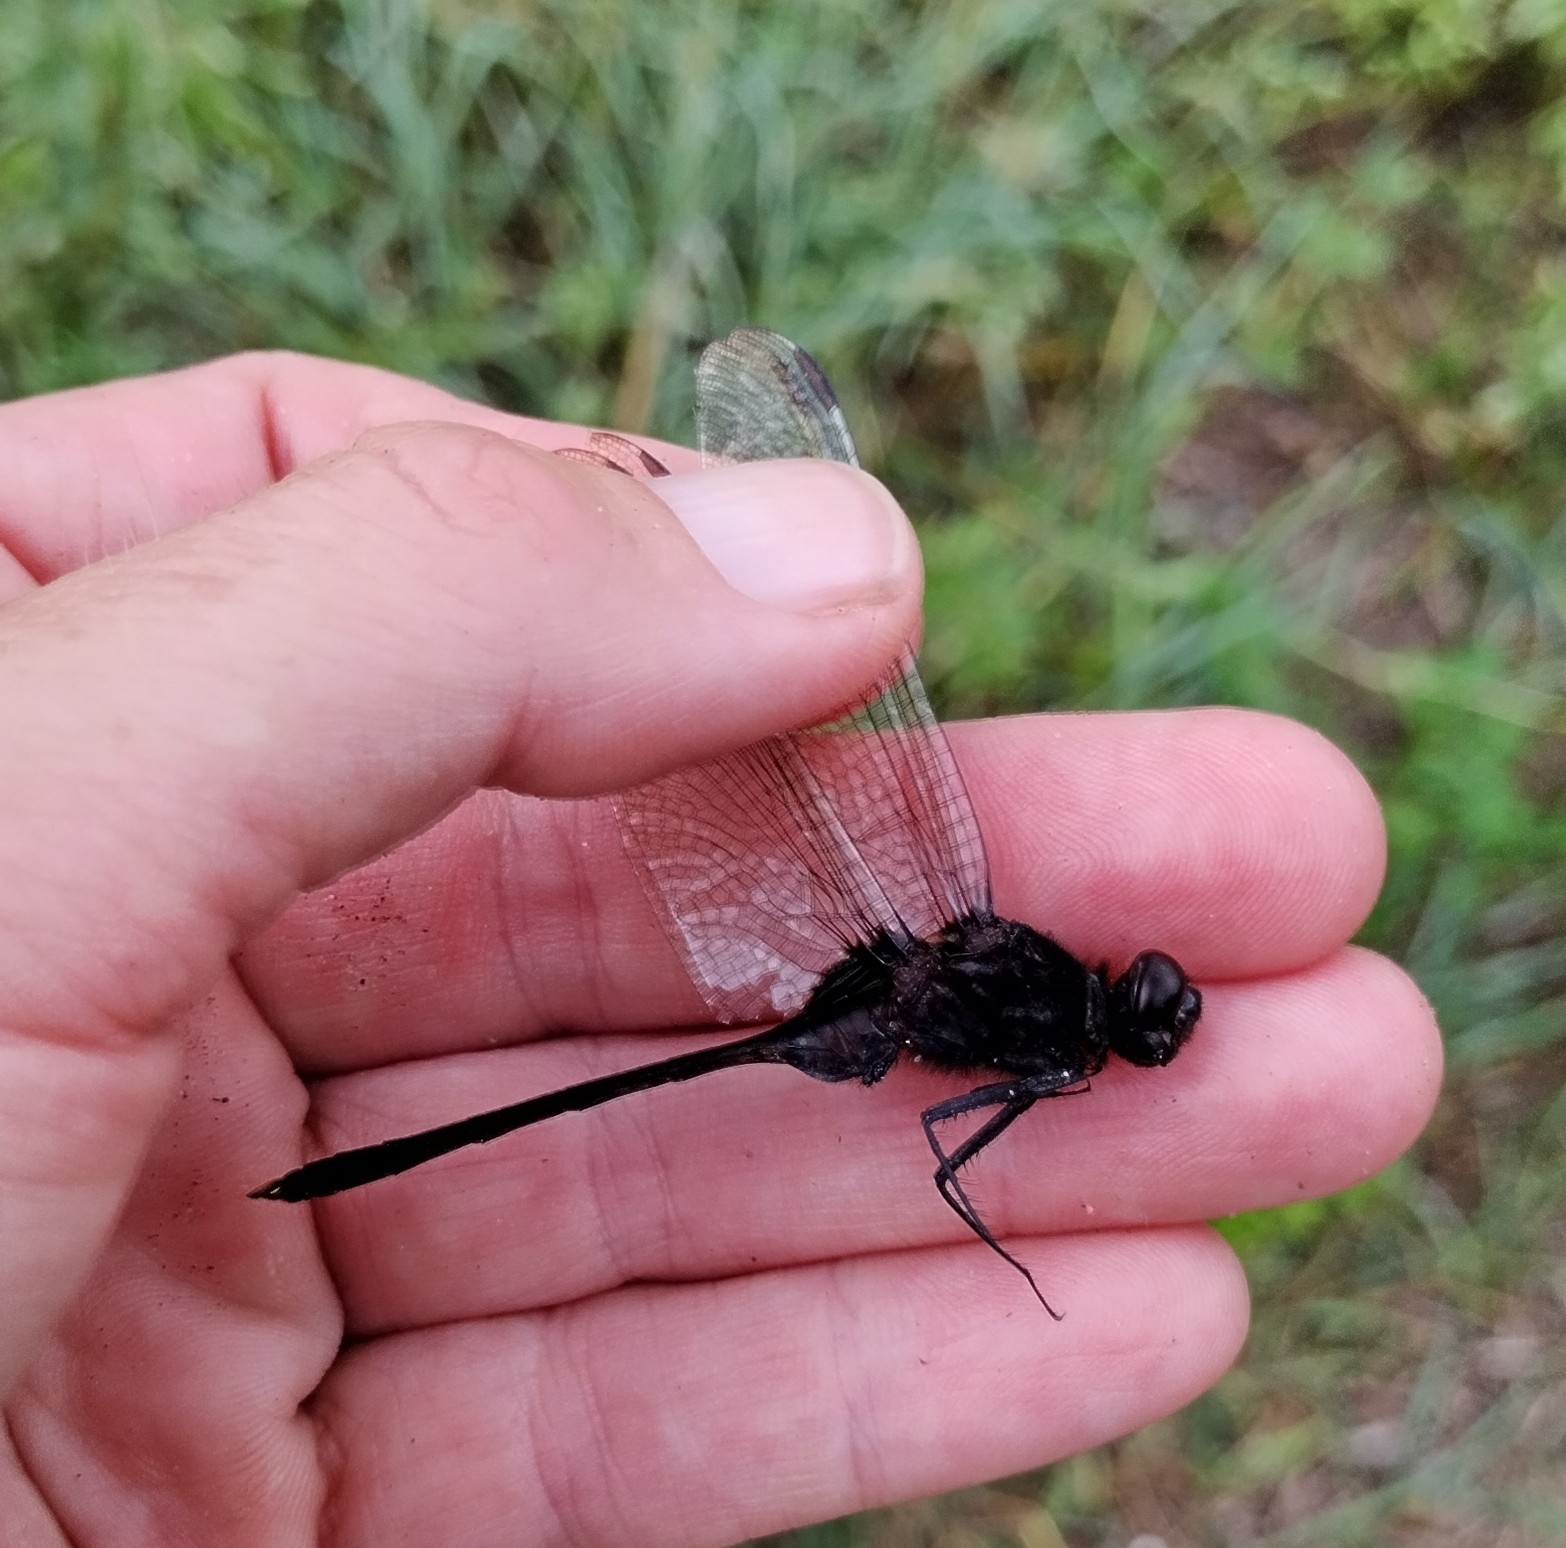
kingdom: Animalia
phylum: Arthropoda
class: Insecta
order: Odonata
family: Libellulidae
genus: Erythemis
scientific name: Erythemis plebeja
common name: Pin-tailed pondhawk
